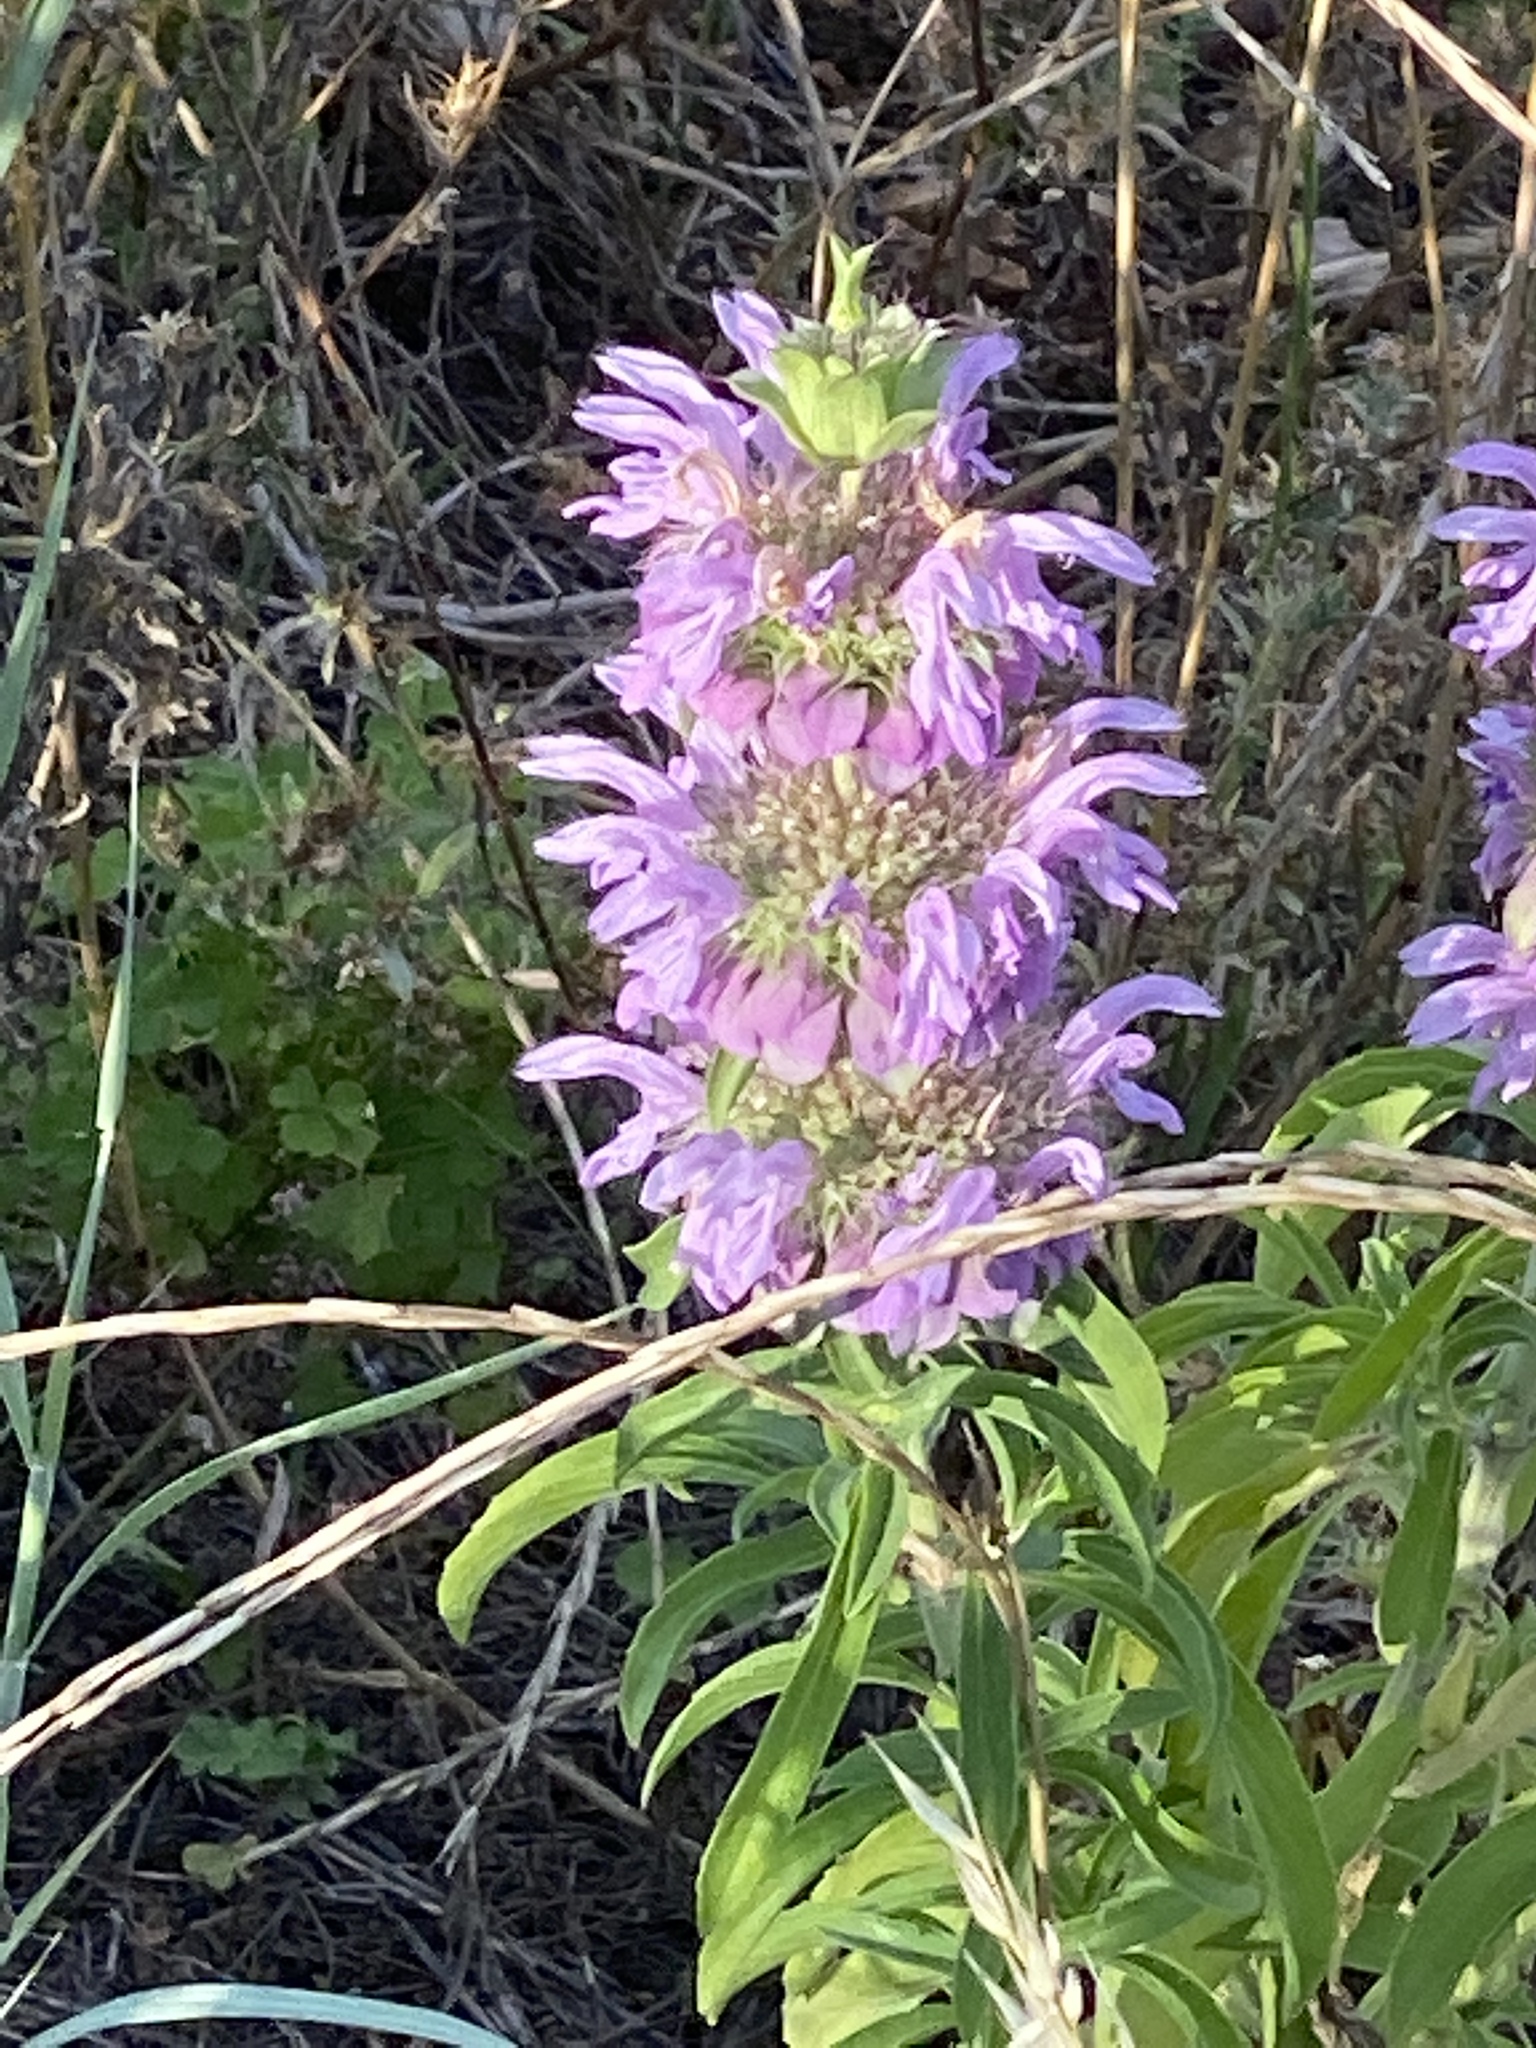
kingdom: Plantae
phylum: Tracheophyta
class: Magnoliopsida
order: Lamiales
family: Lamiaceae
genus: Monarda
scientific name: Monarda citriodora
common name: Lemon beebalm
